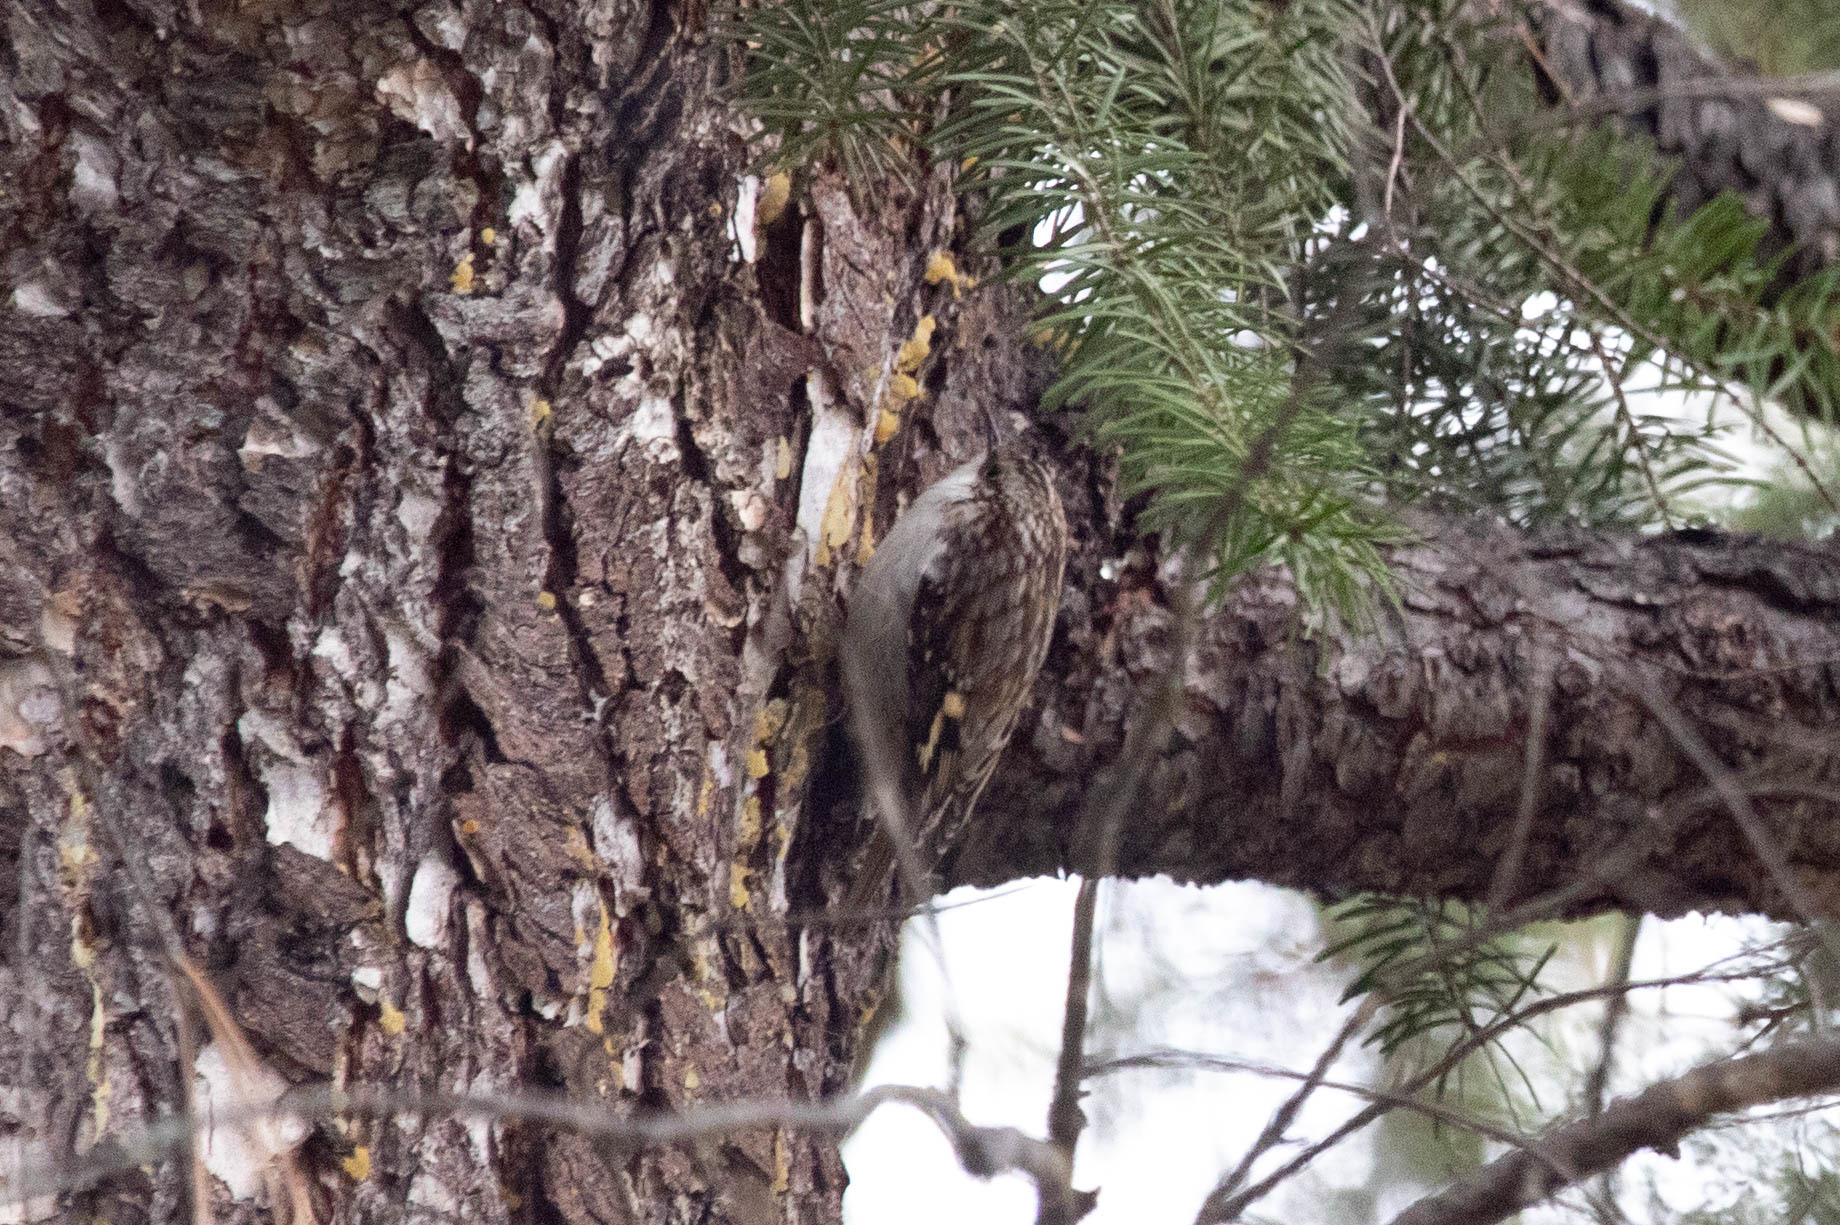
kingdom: Animalia
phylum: Chordata
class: Aves
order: Passeriformes
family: Certhiidae
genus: Certhia
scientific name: Certhia americana
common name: Brown creeper
